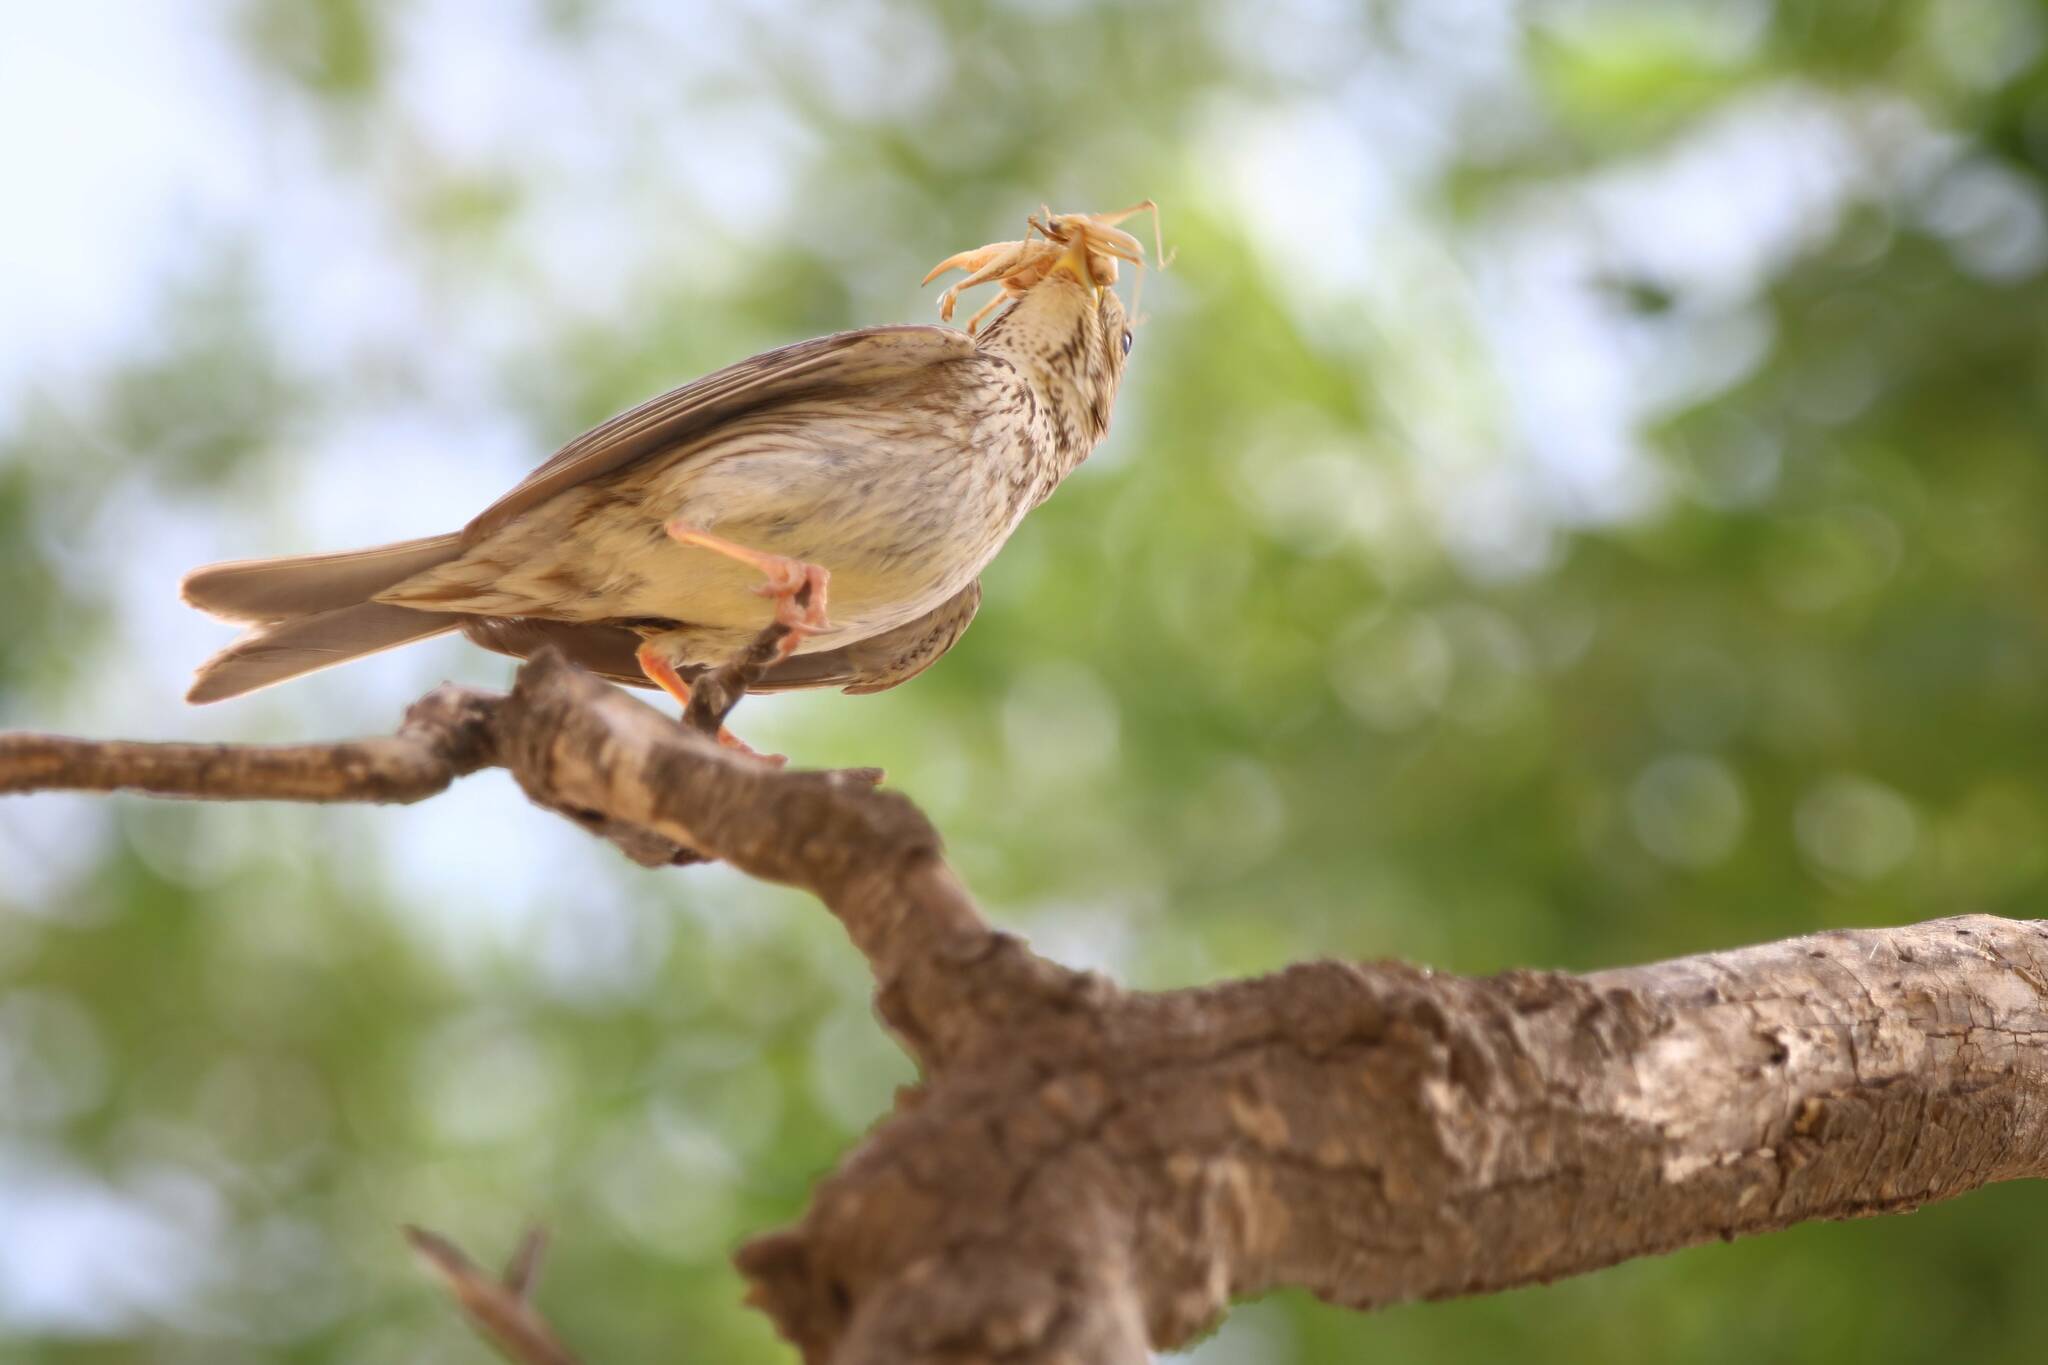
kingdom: Animalia
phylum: Chordata
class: Aves
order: Passeriformes
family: Emberizidae
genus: Emberiza
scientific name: Emberiza calandra
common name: Corn bunting
